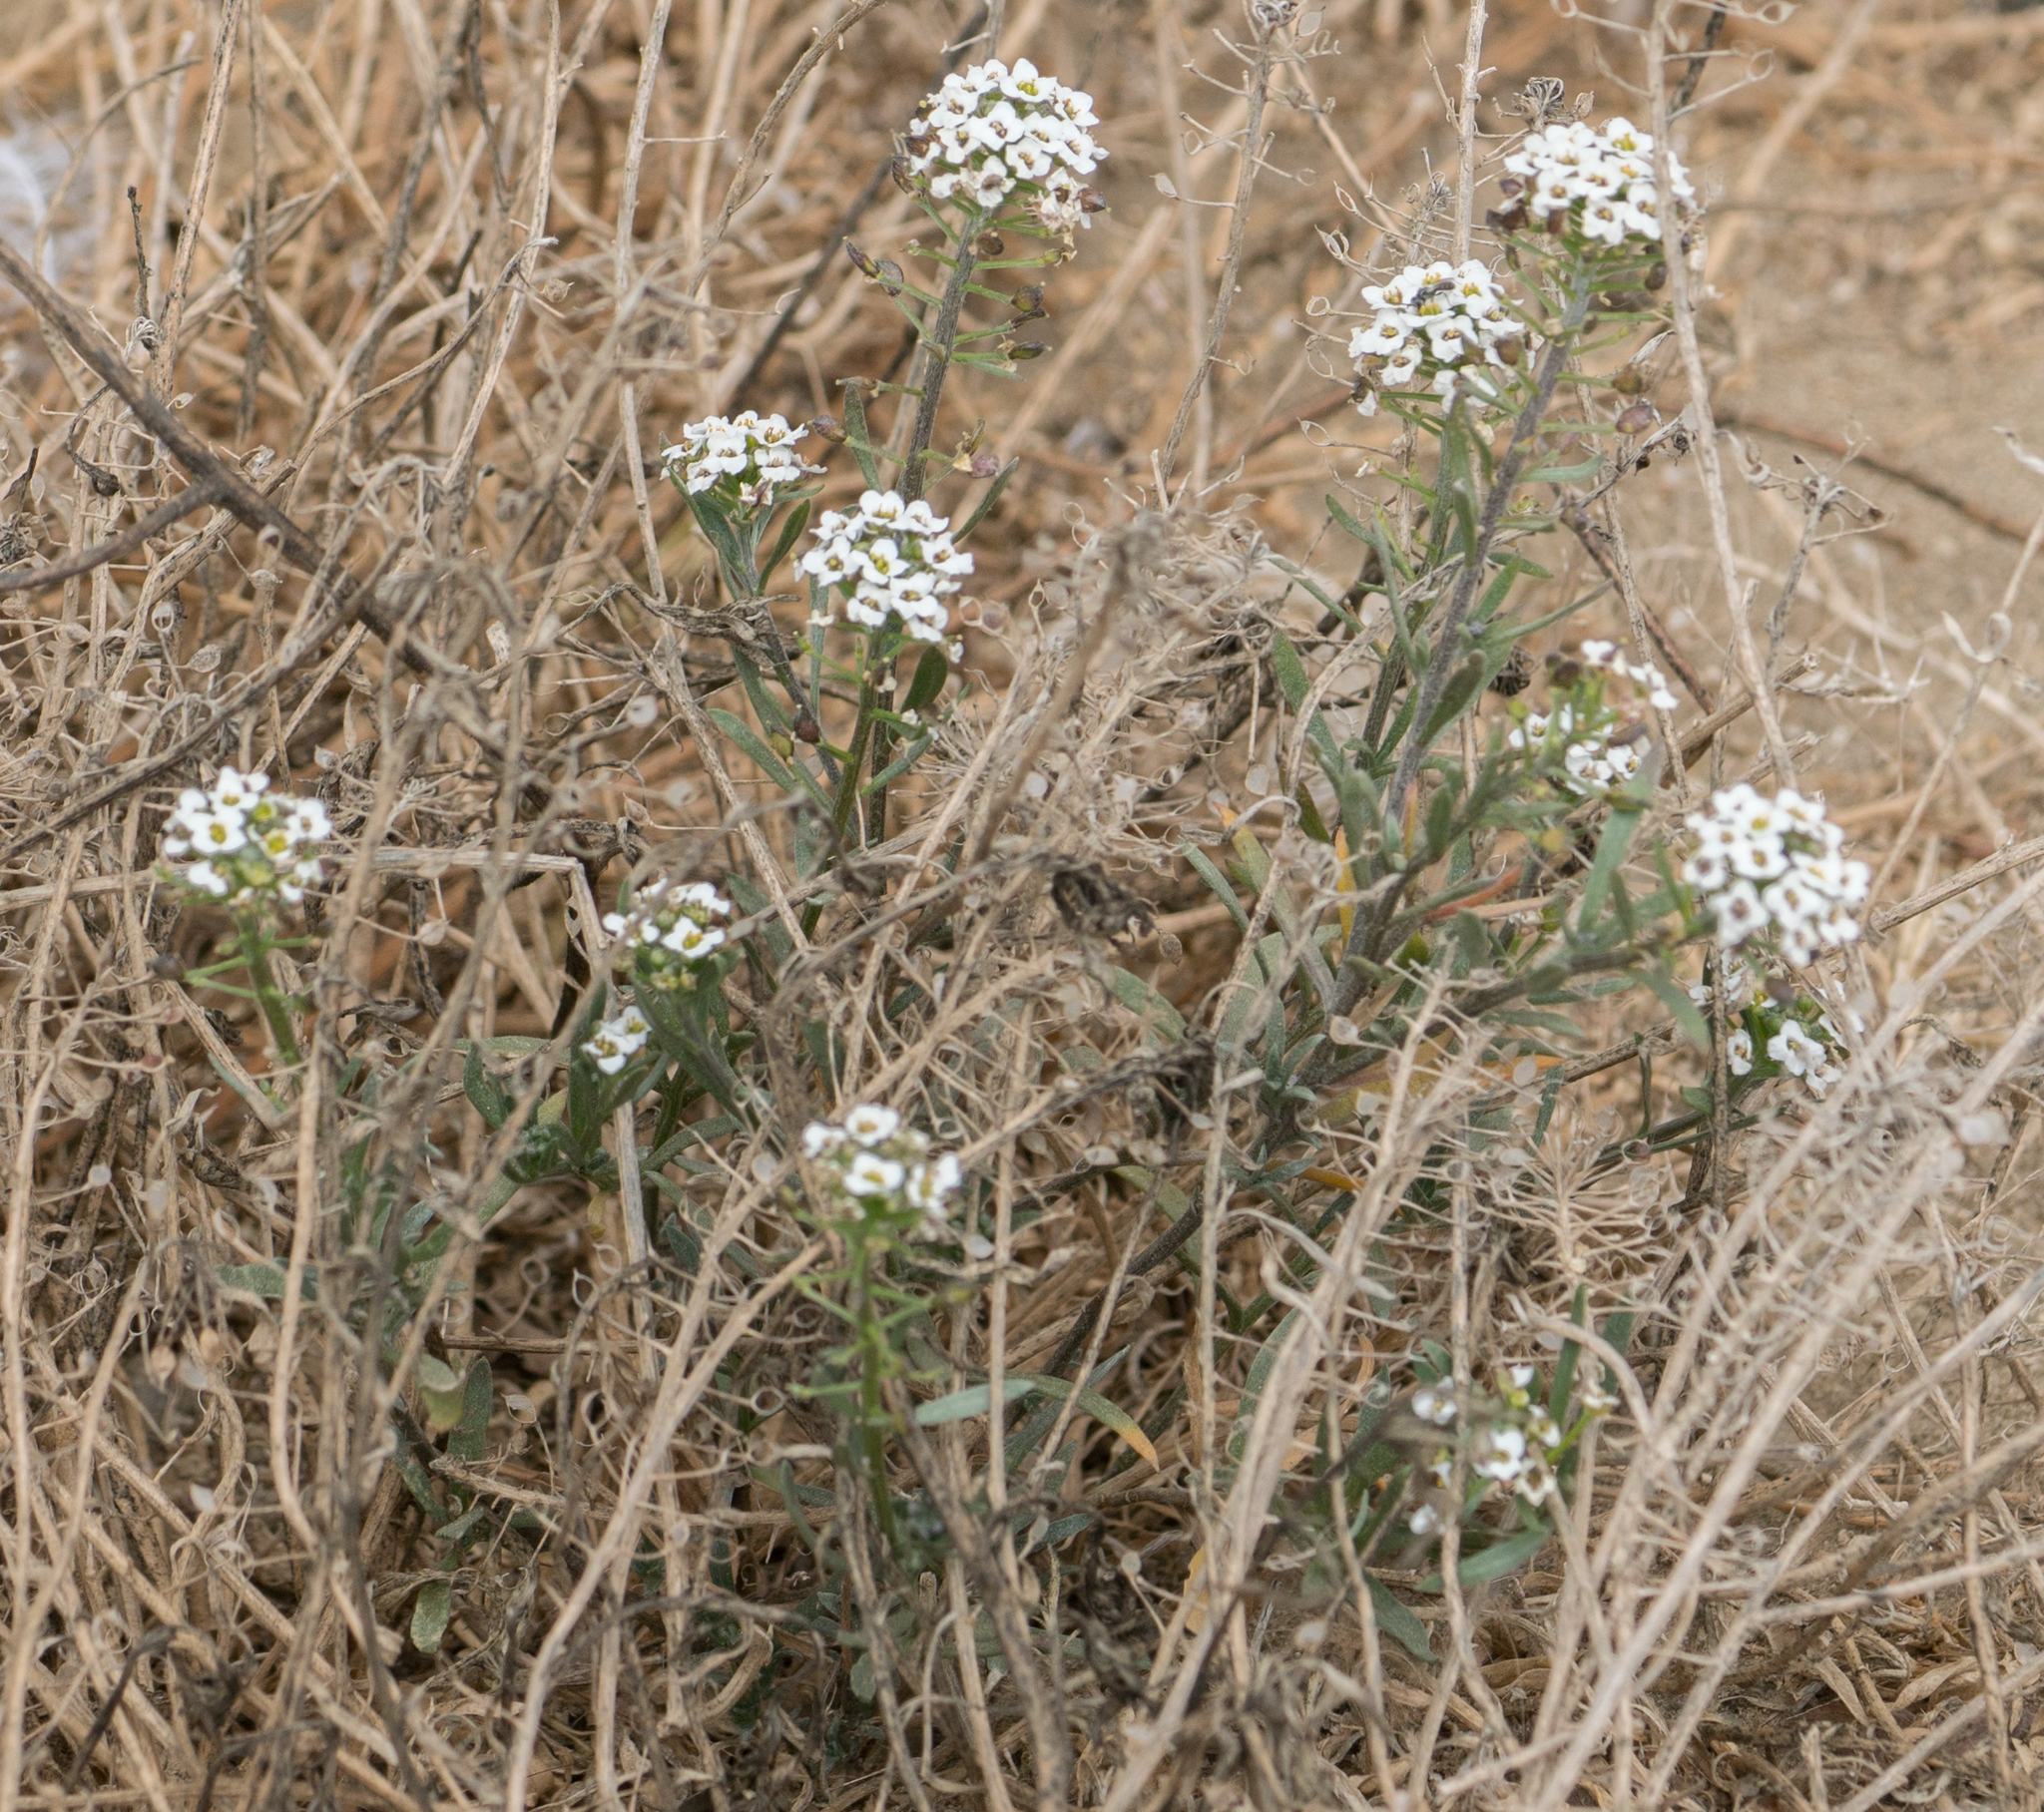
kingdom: Plantae
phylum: Tracheophyta
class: Magnoliopsida
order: Brassicales
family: Brassicaceae
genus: Lobularia
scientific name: Lobularia maritima
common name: Sweet alison
